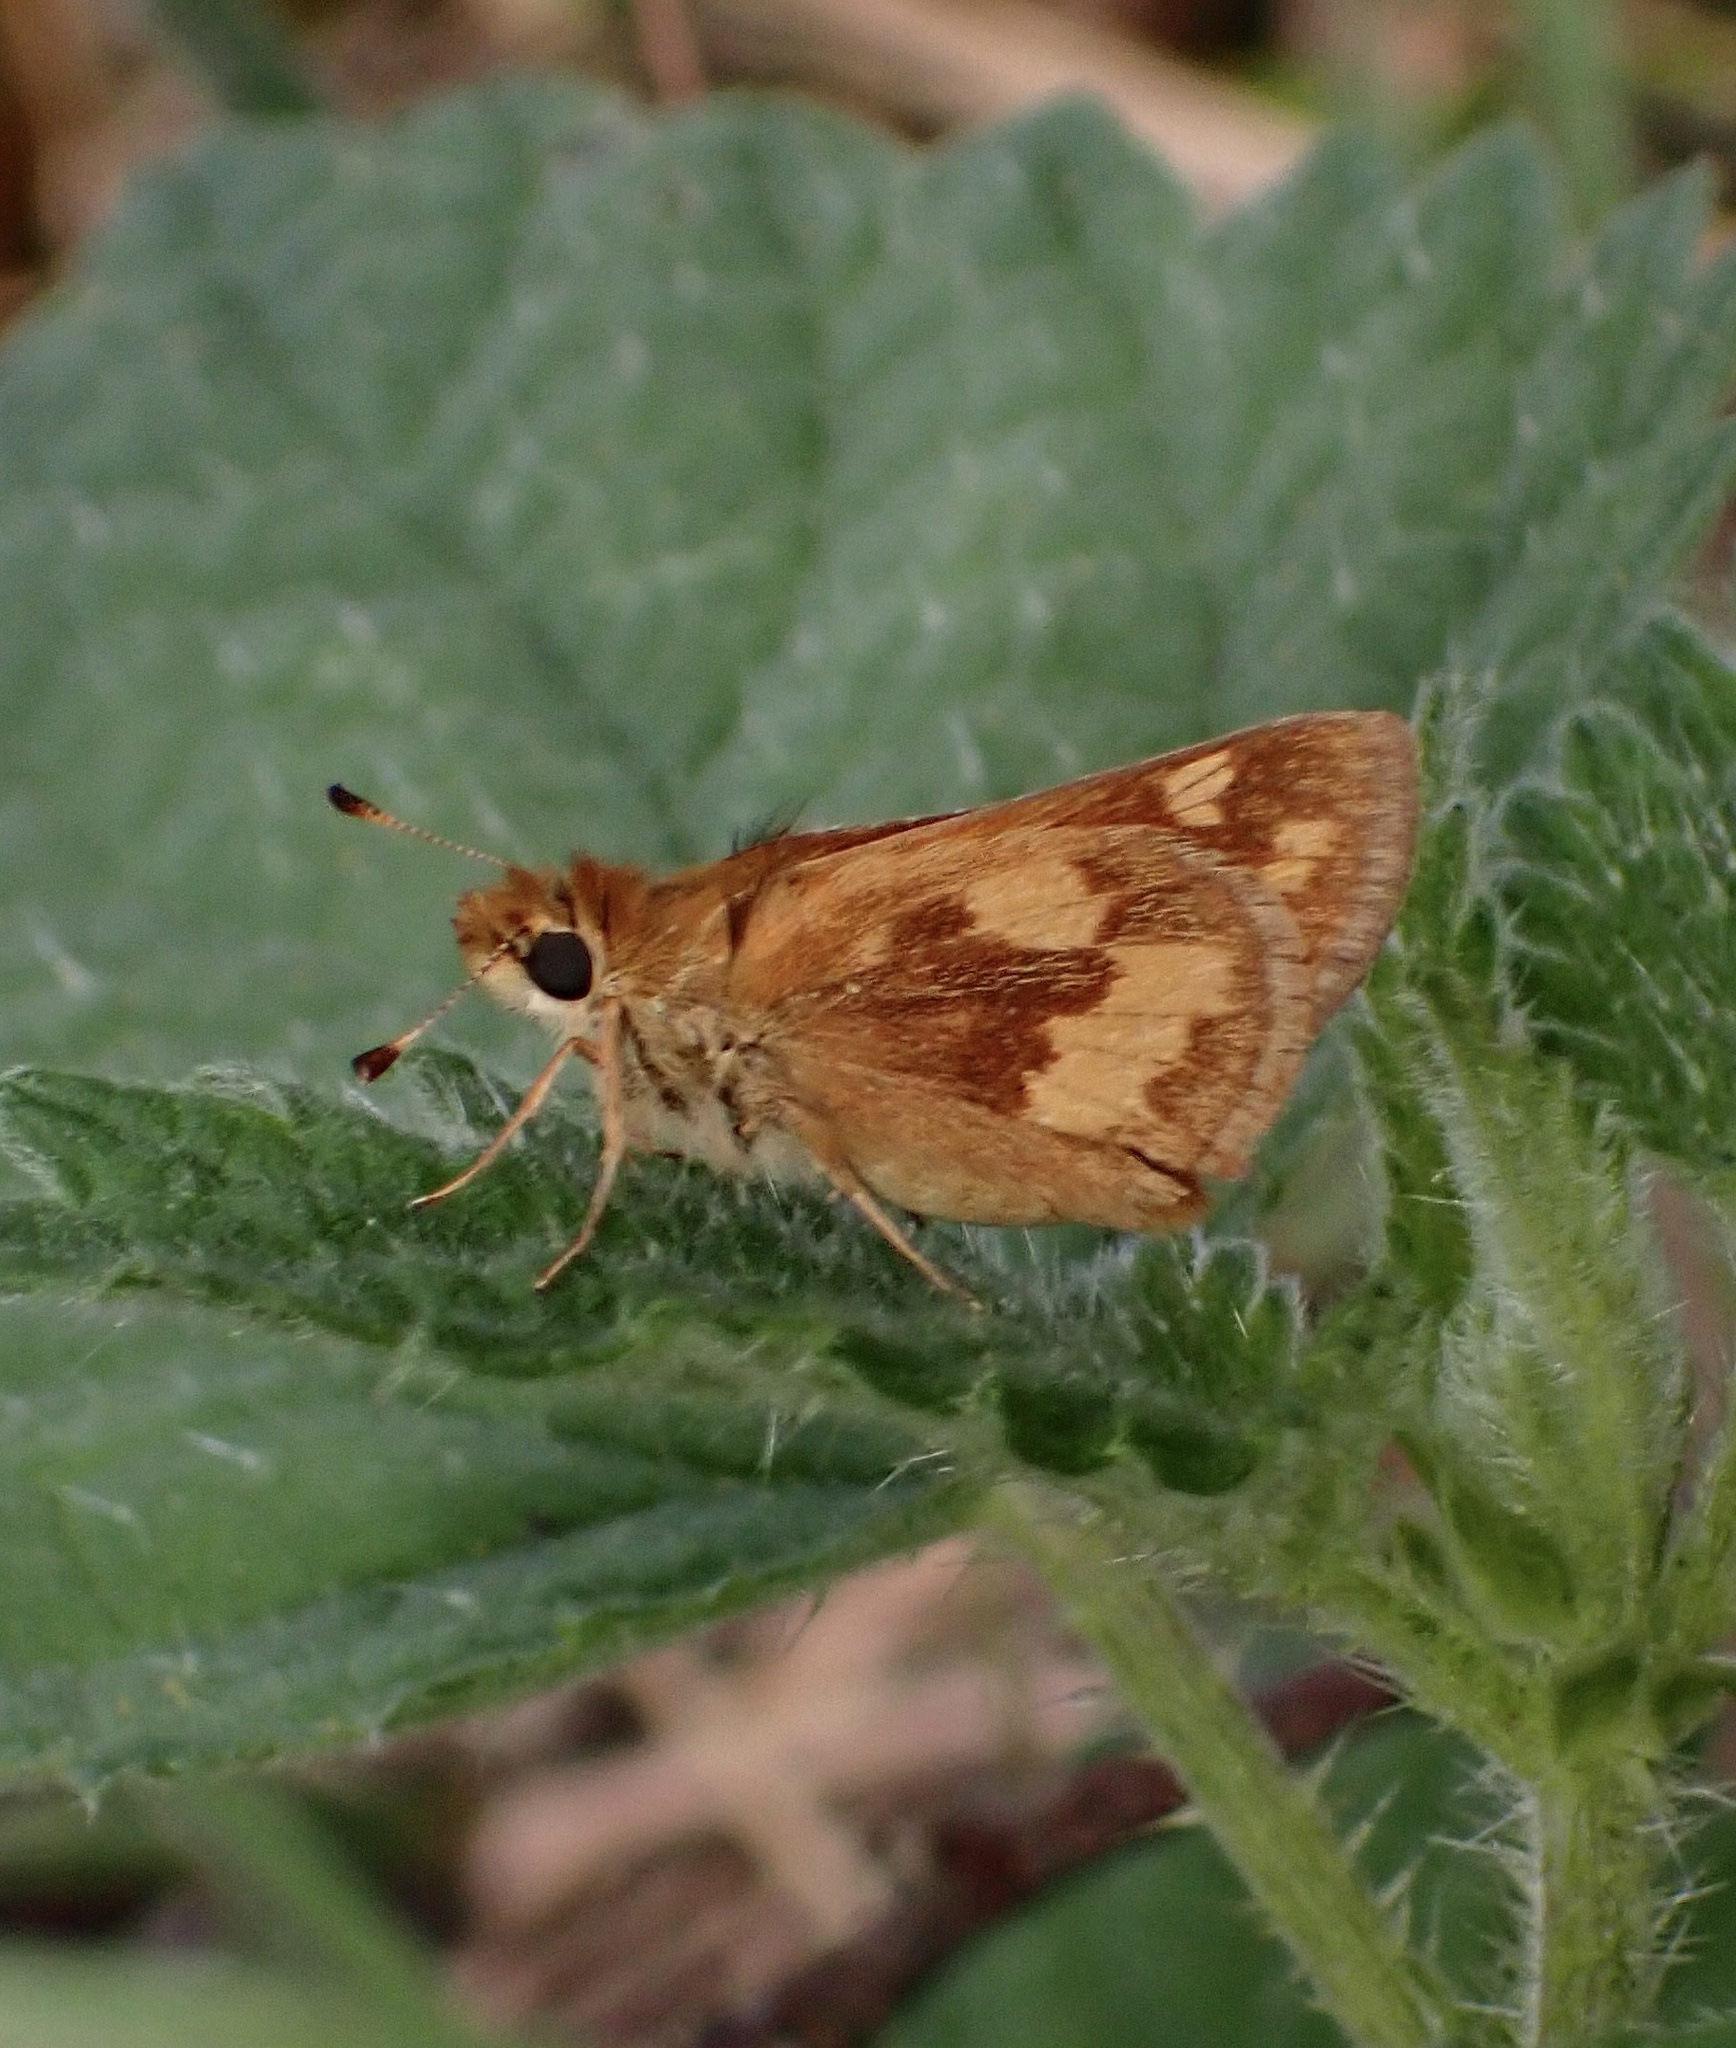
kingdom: Animalia
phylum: Arthropoda
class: Insecta
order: Lepidoptera
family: Hesperiidae
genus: Ochlodes
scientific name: Ochlodes sylvanoides
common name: Woodland skipper
